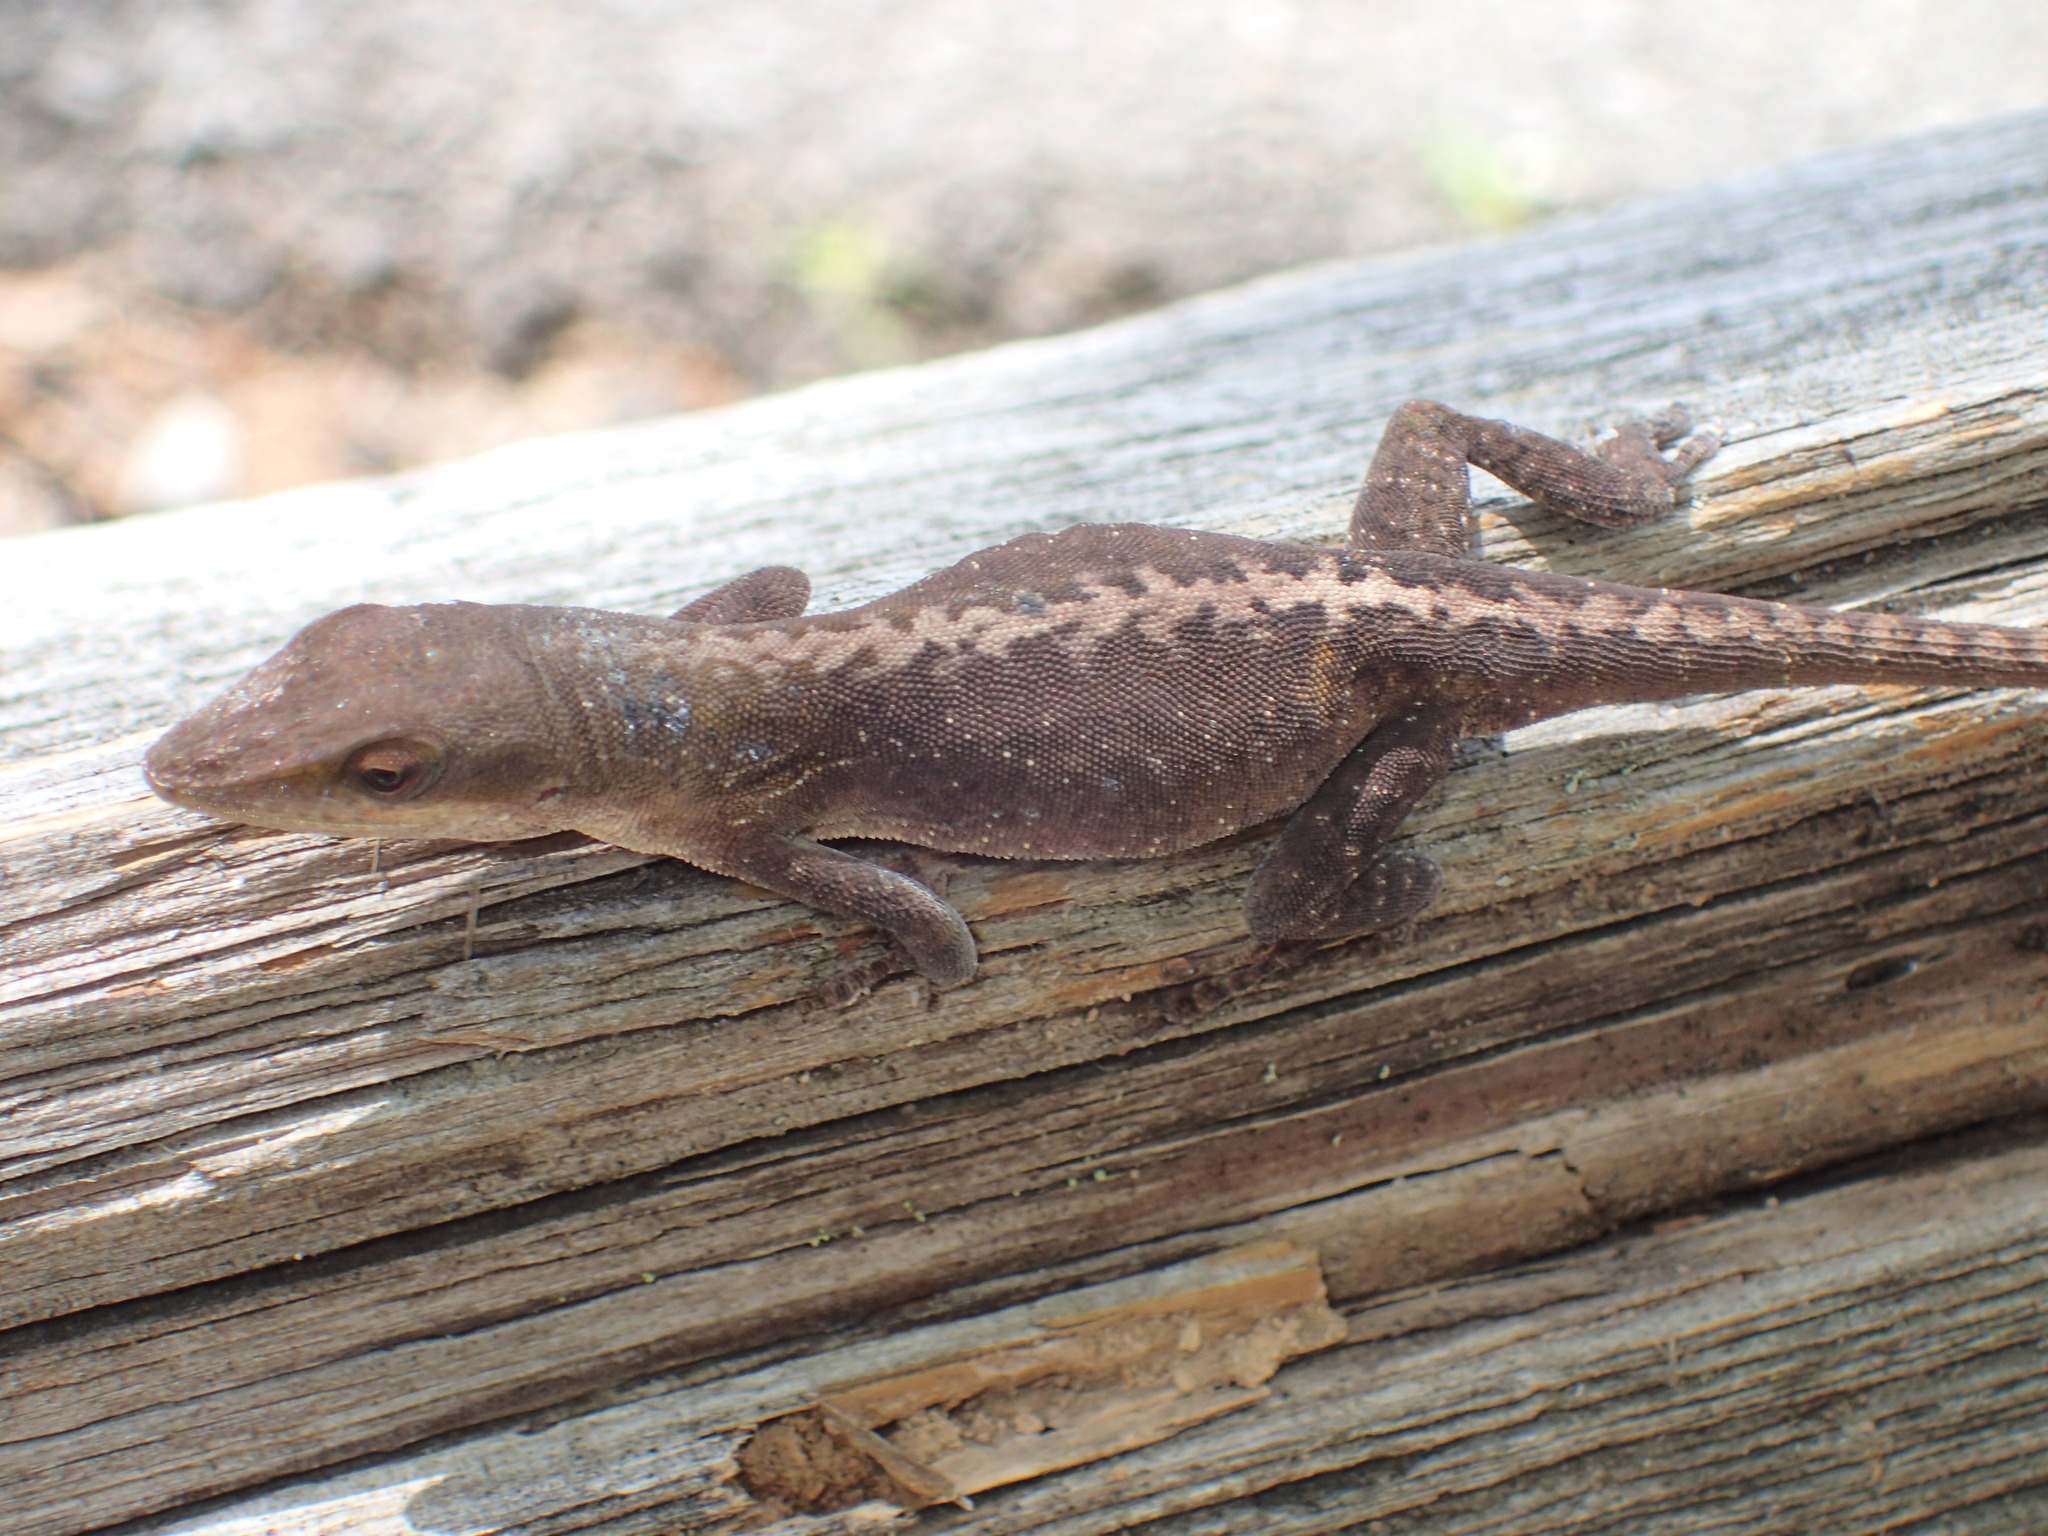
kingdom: Animalia
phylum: Chordata
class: Squamata
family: Dactyloidae
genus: Anolis
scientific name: Anolis carolinensis
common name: Green anole
